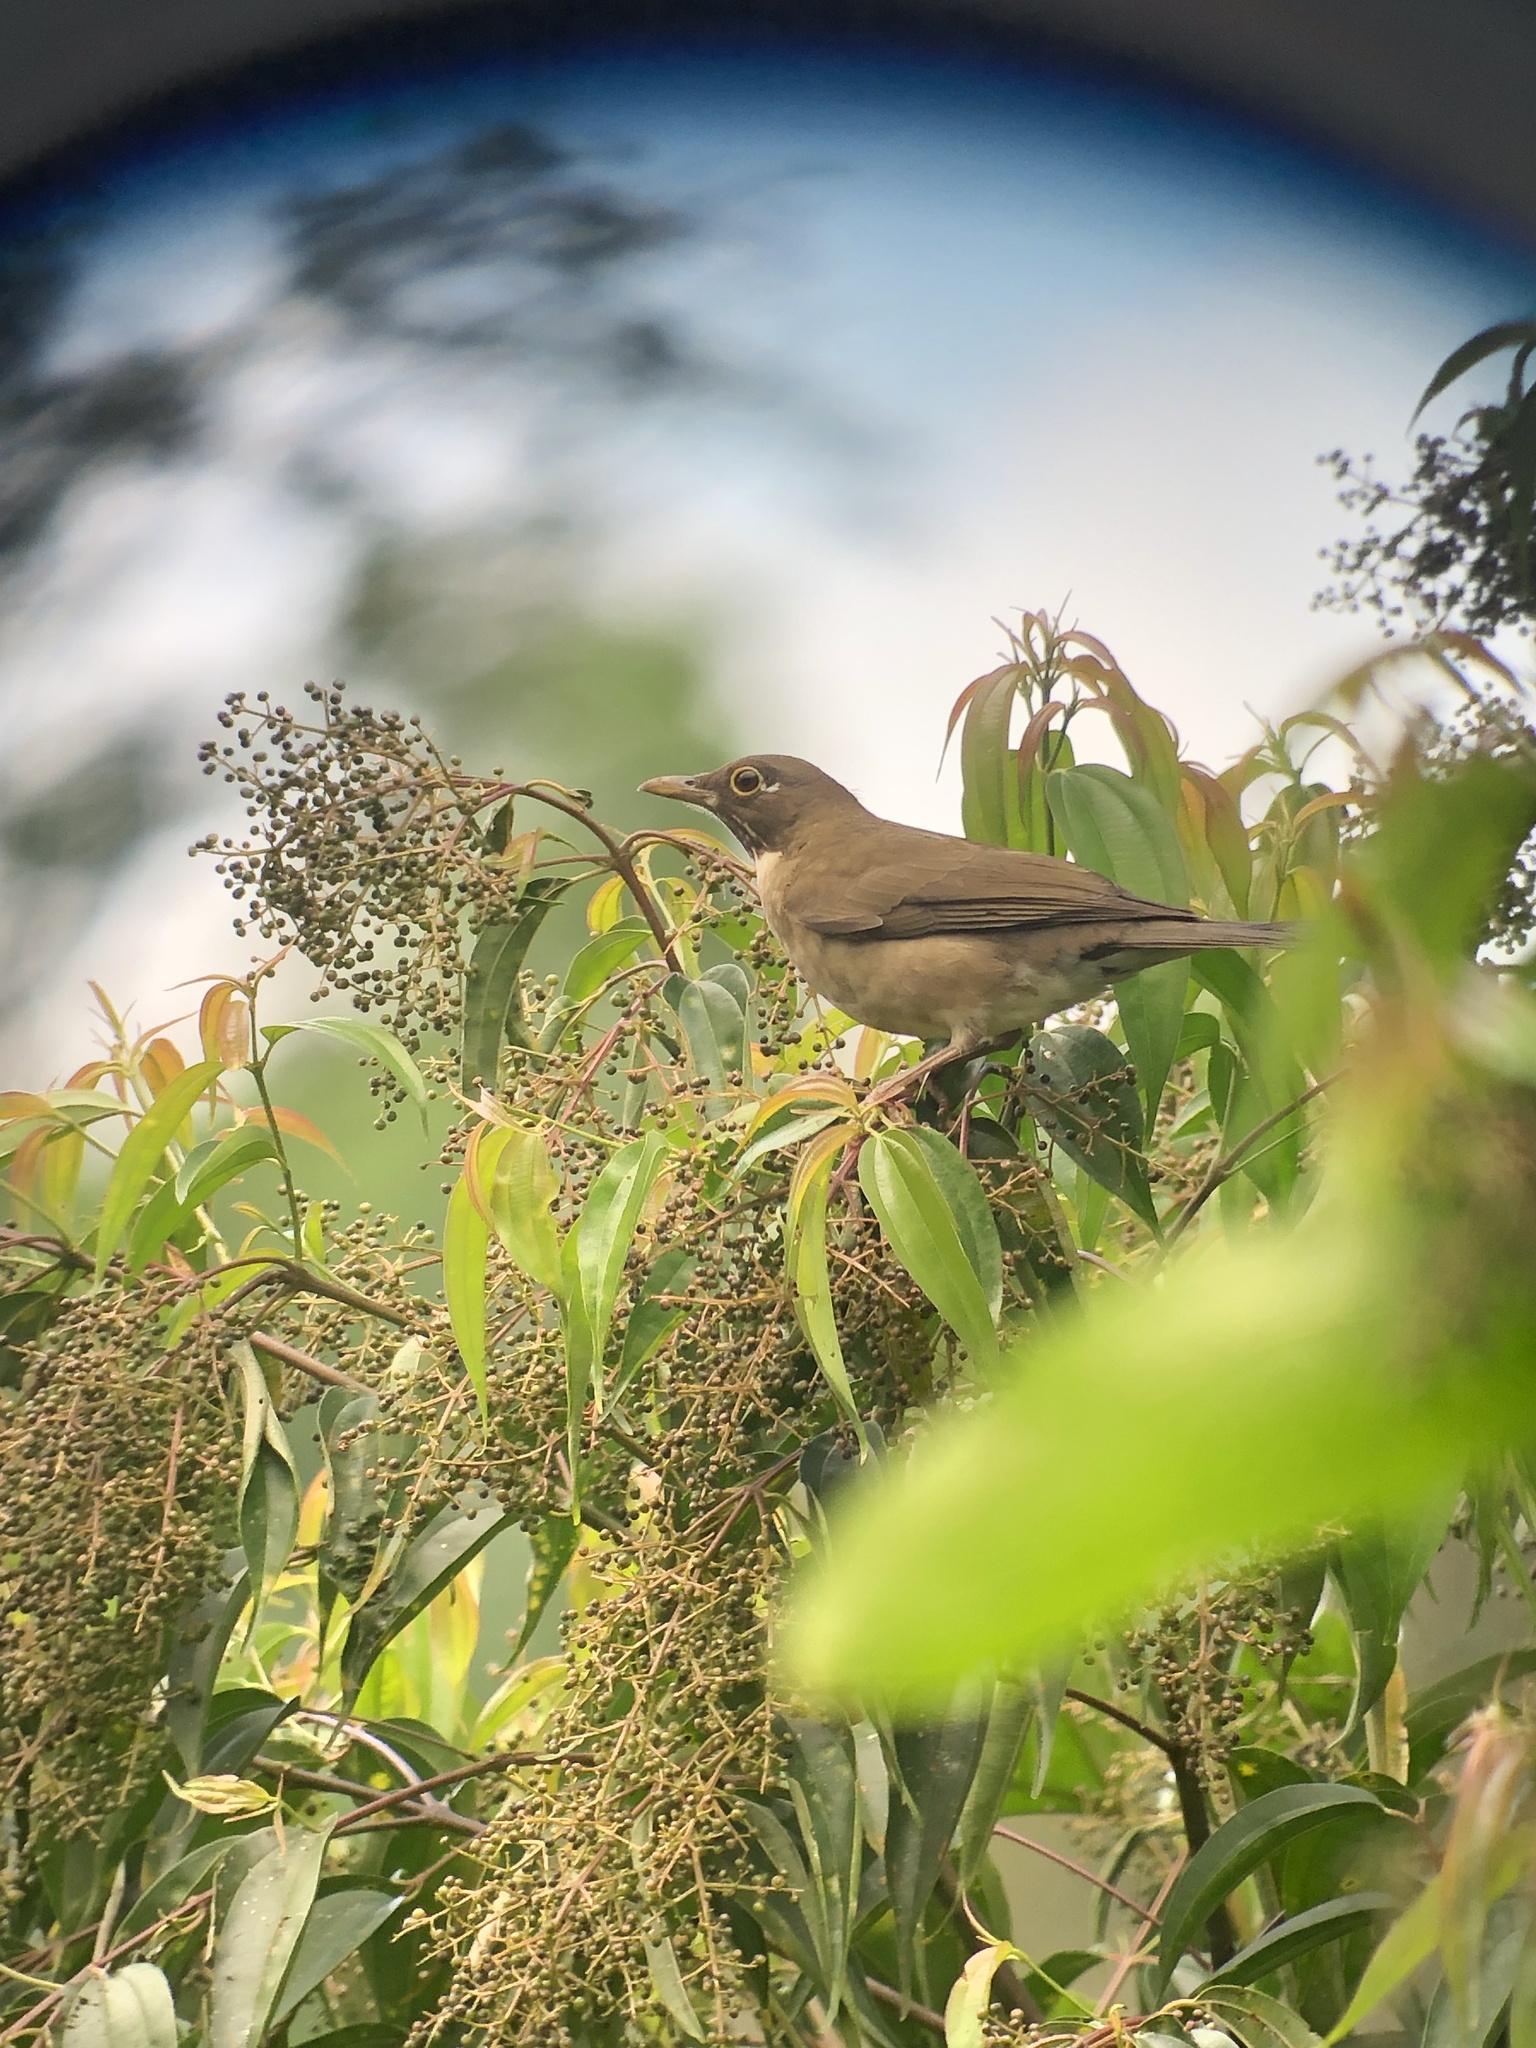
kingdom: Animalia
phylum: Chordata
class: Aves
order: Passeriformes
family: Turdidae
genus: Turdus
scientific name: Turdus assimilis
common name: White-throated thrush
